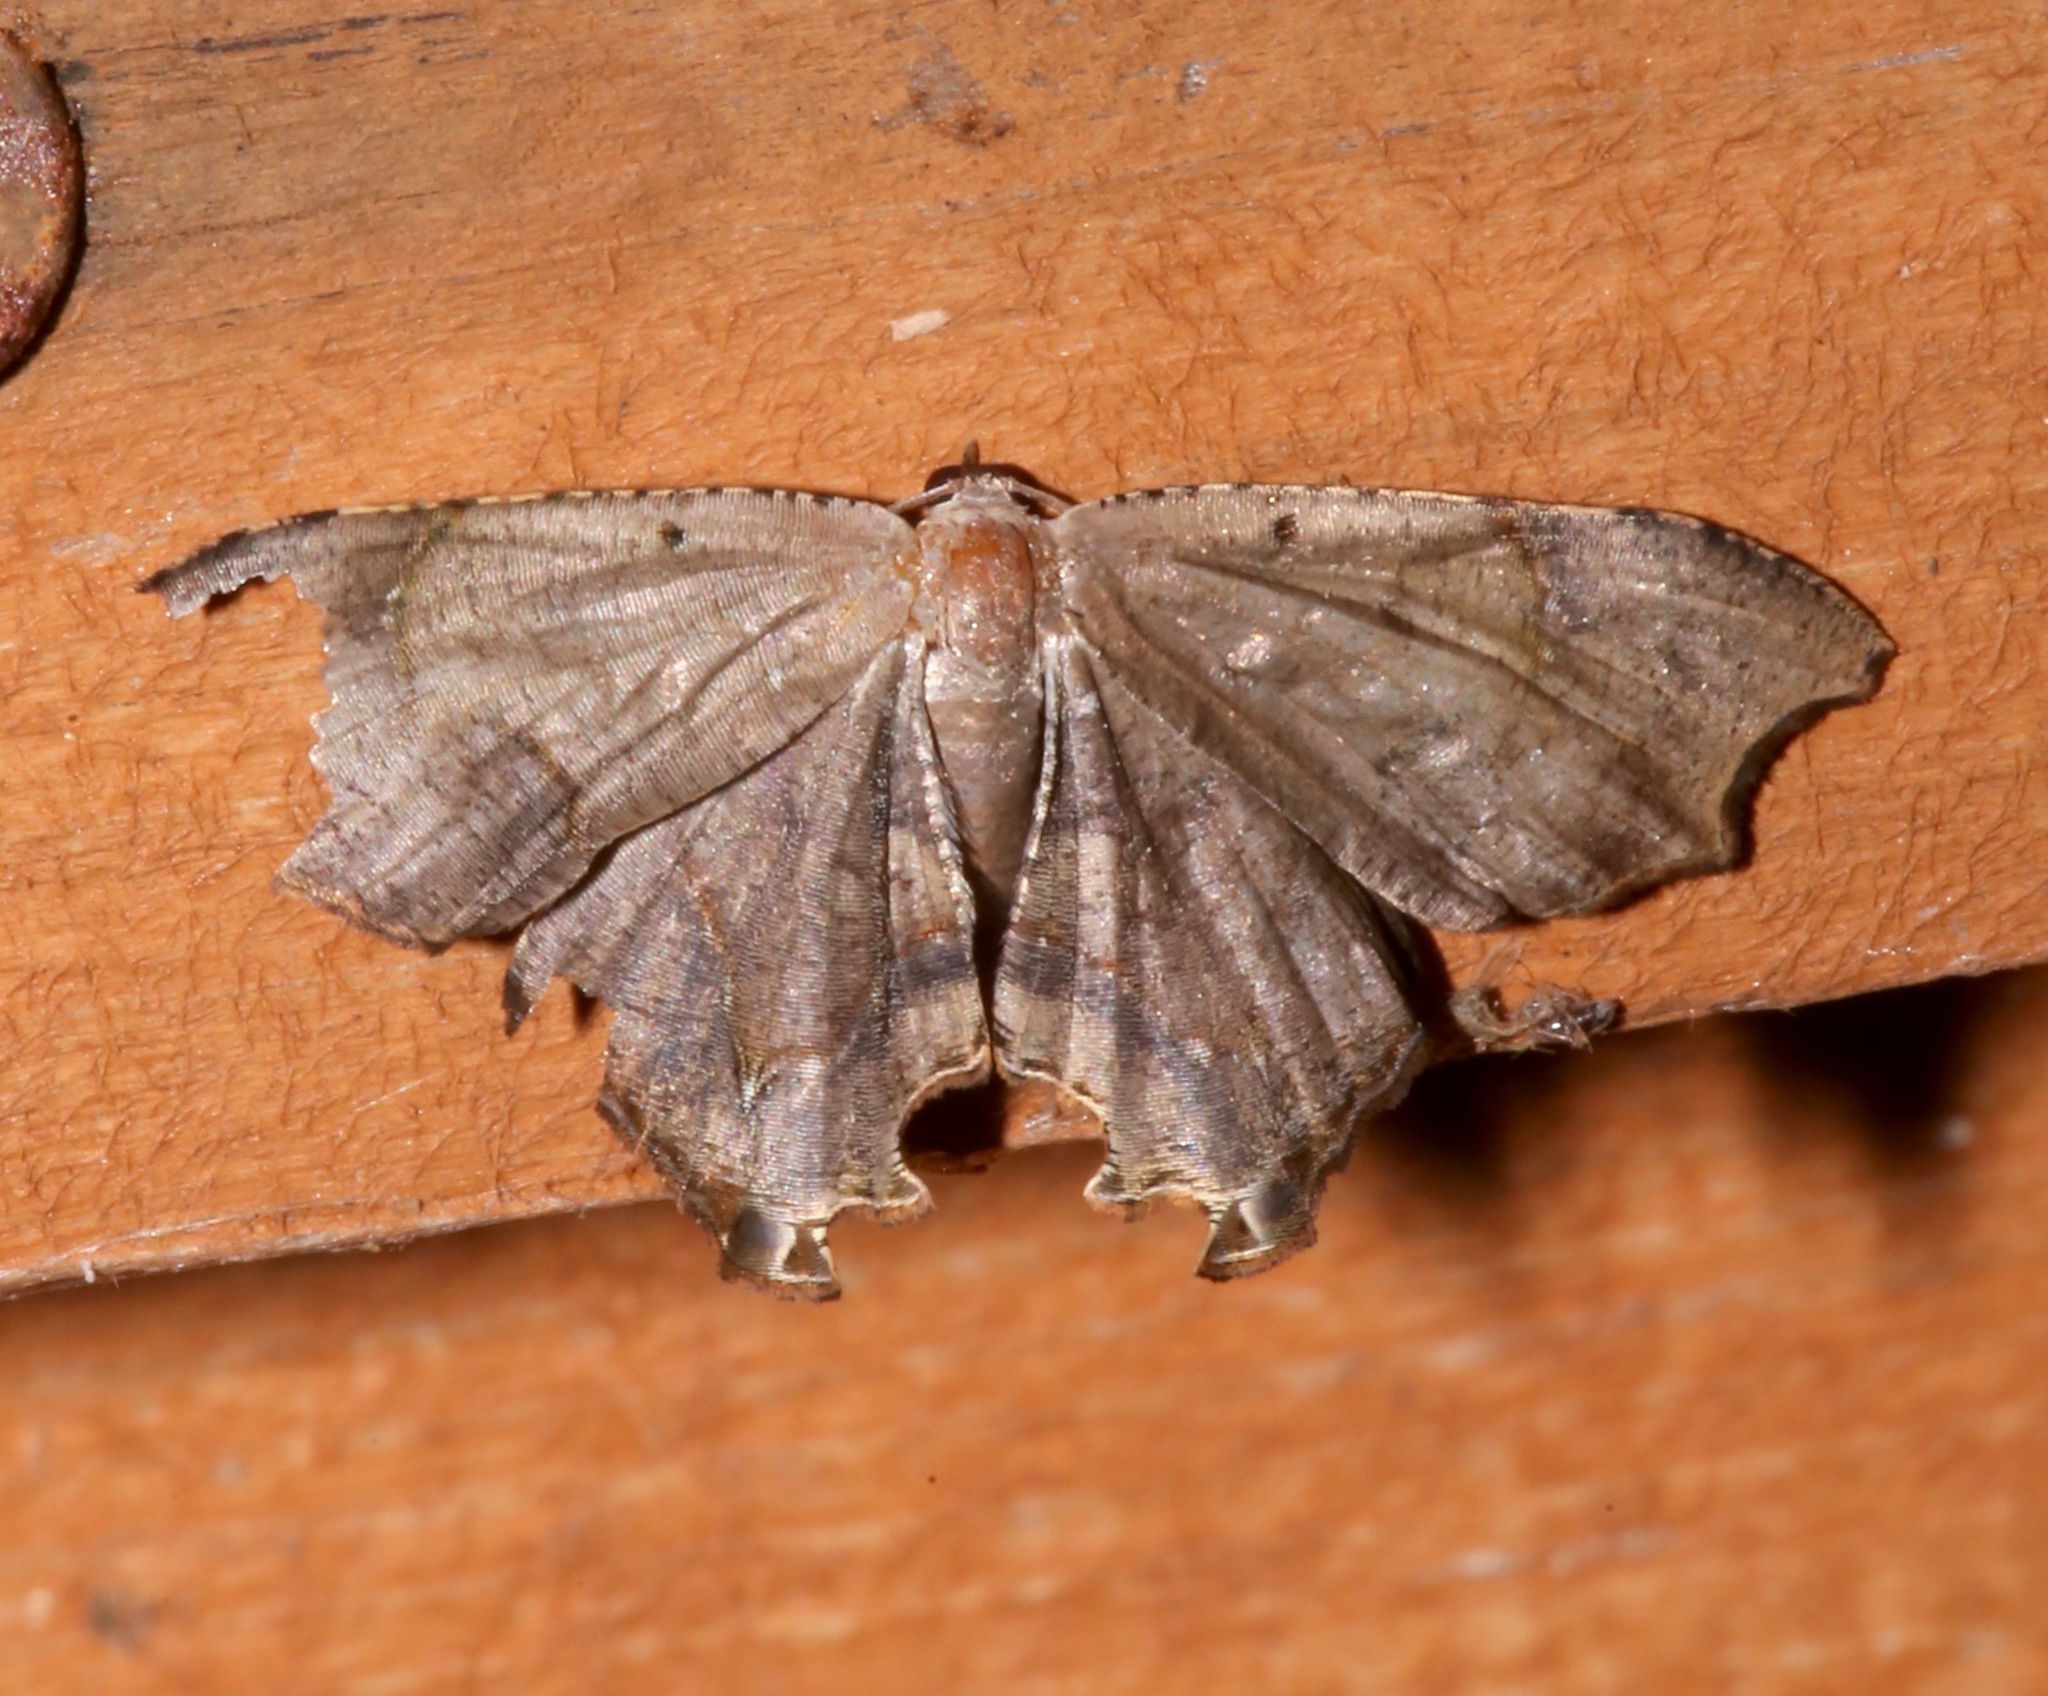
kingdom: Animalia
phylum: Arthropoda
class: Insecta
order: Lepidoptera
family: Uraniidae
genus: Trotorhombia
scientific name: Trotorhombia metachromata
